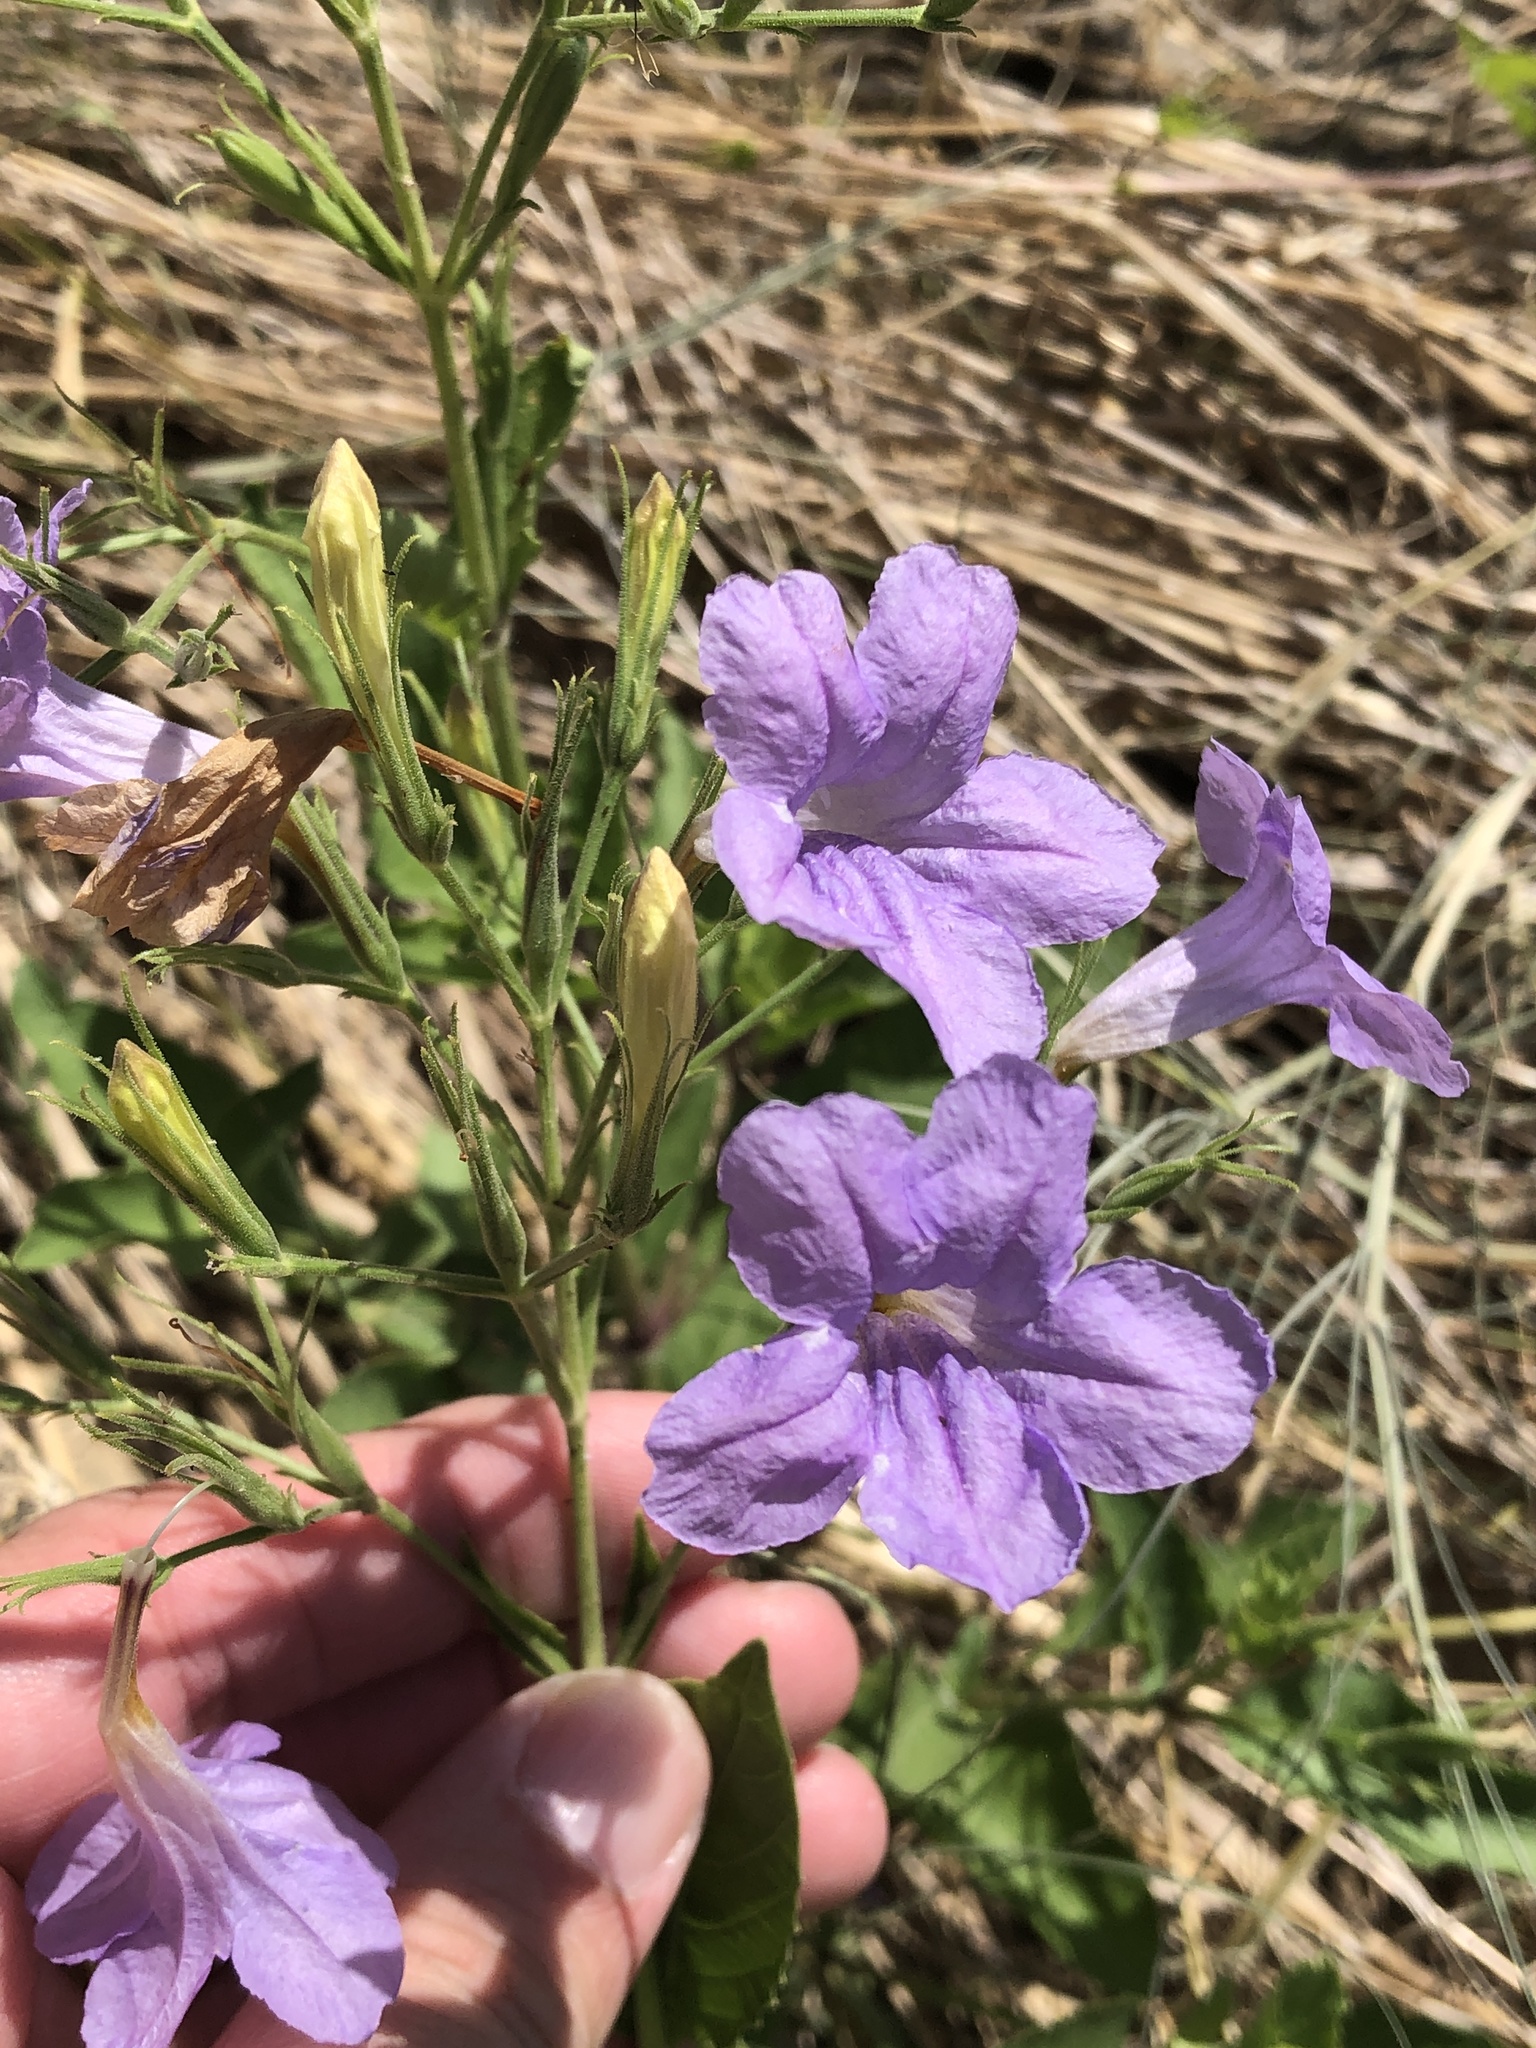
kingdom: Plantae
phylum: Tracheophyta
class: Magnoliopsida
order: Lamiales
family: Acanthaceae
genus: Ruellia
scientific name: Ruellia ciliatiflora
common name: Hairyflower wild petunia
